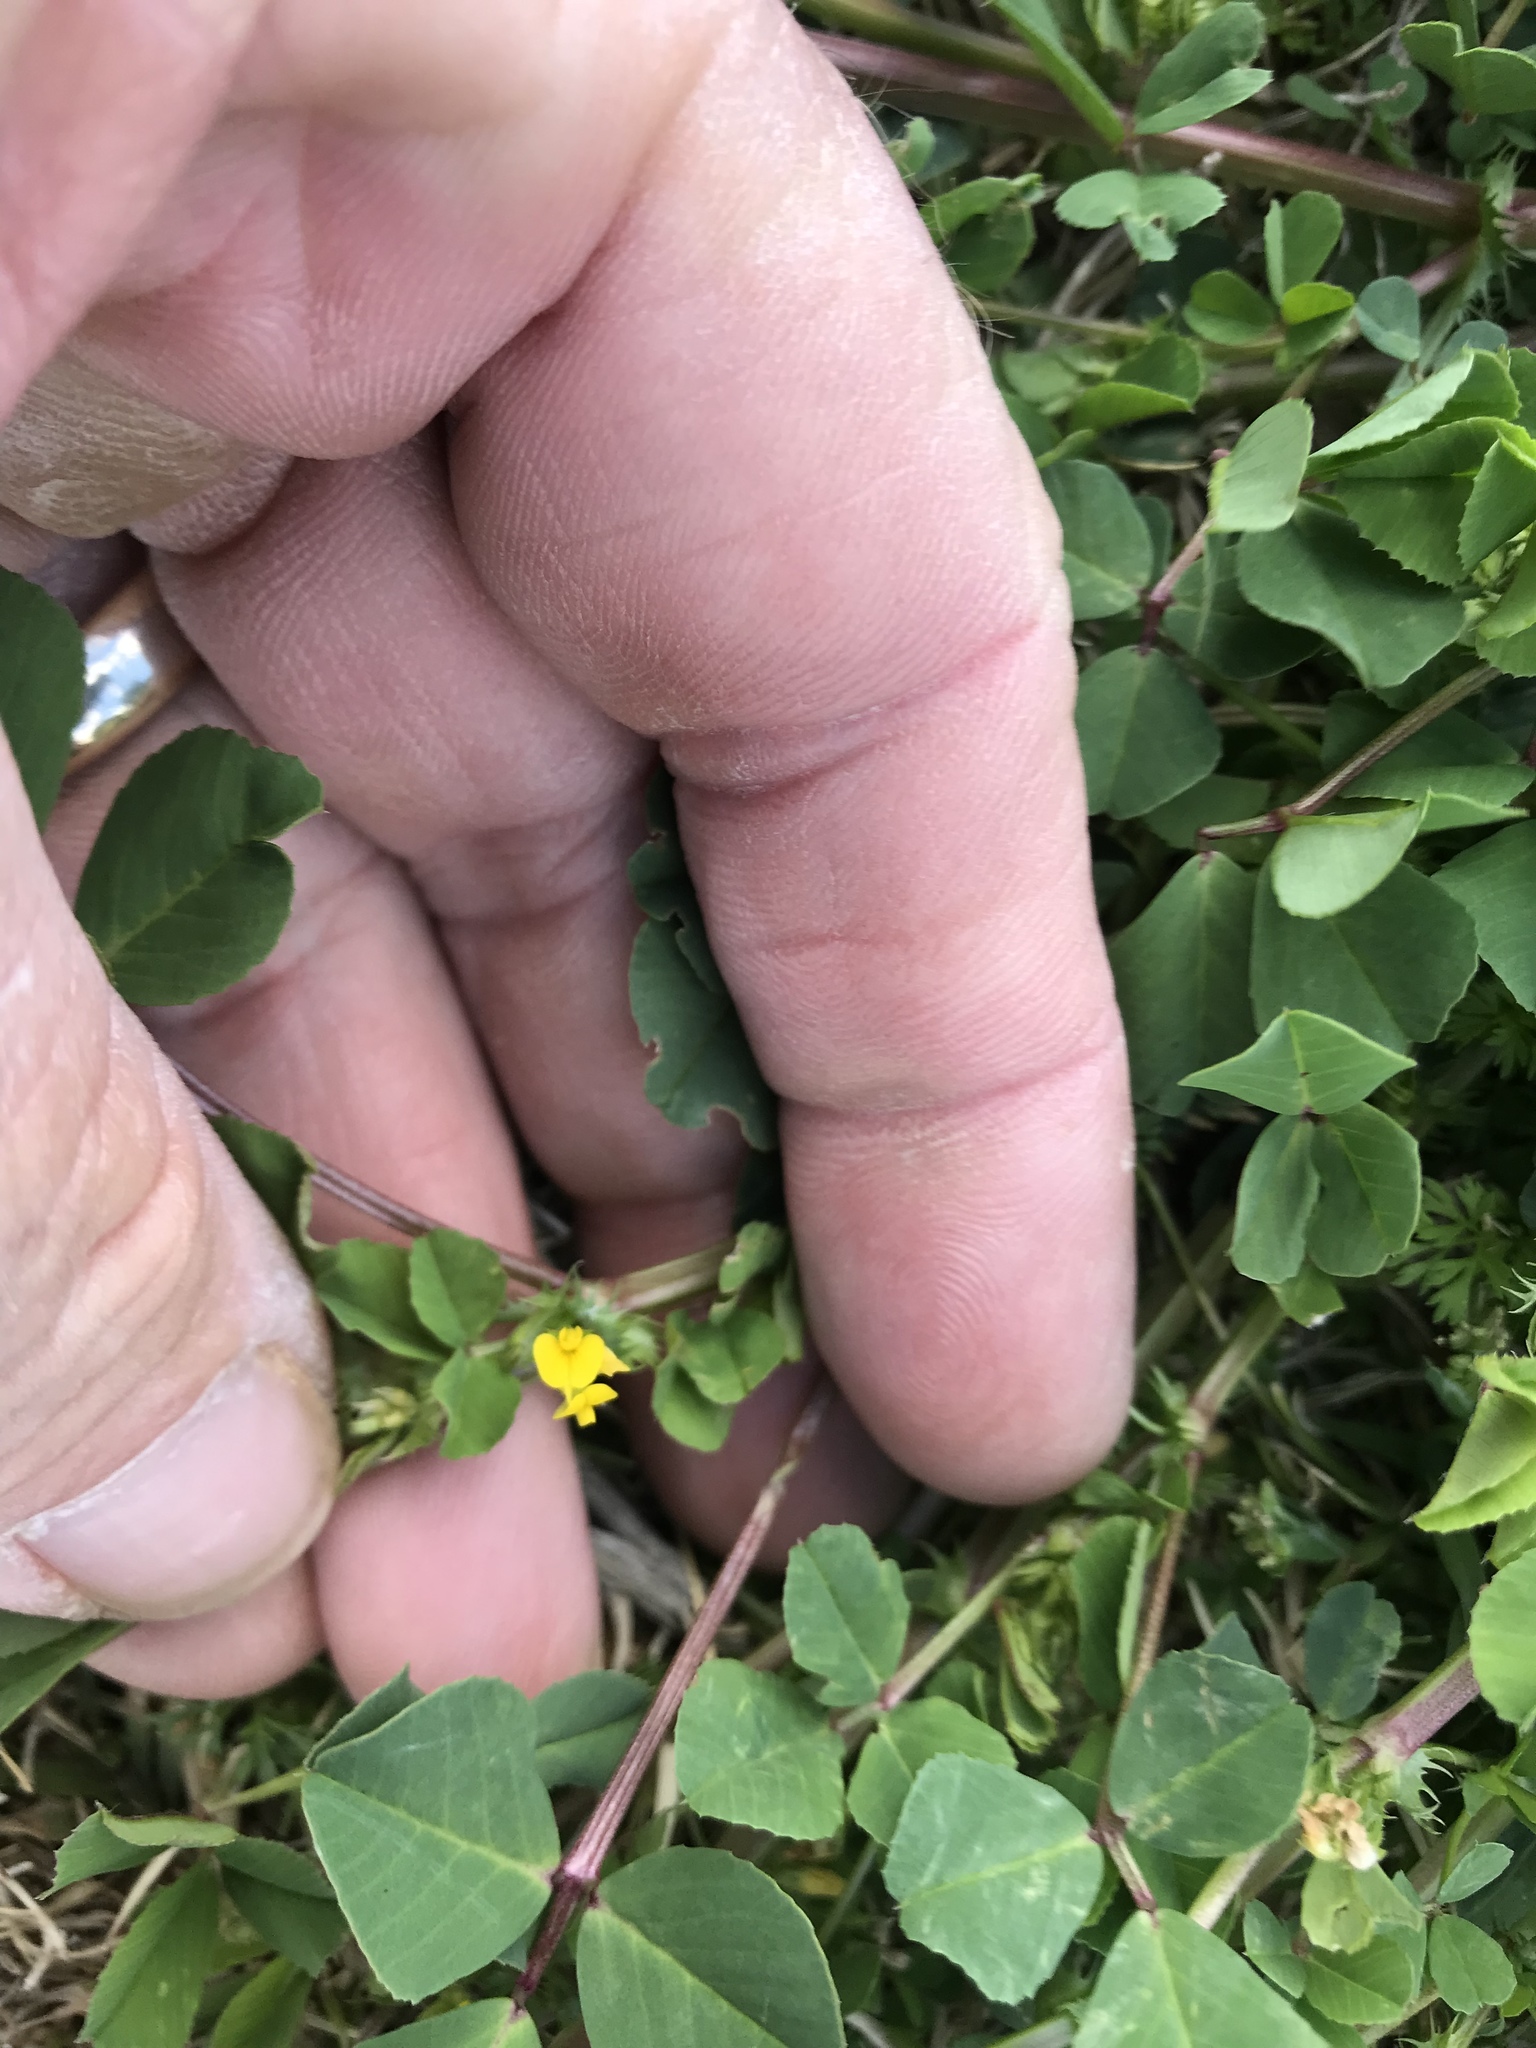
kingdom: Plantae
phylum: Tracheophyta
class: Magnoliopsida
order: Fabales
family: Fabaceae
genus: Medicago
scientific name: Medicago polymorpha
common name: Burclover
